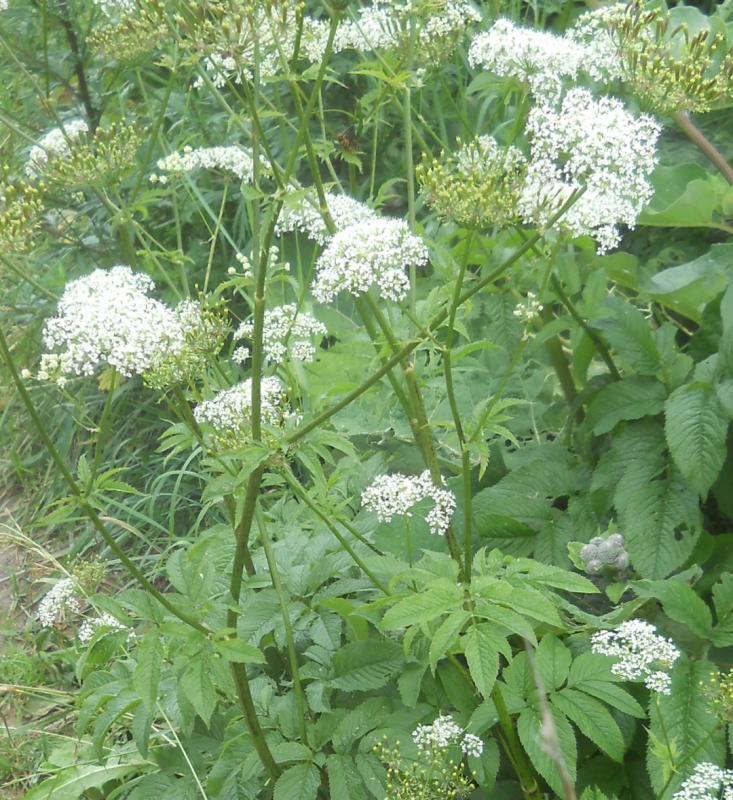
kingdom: Plantae
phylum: Tracheophyta
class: Magnoliopsida
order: Apiales
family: Apiaceae
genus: Chaerophyllum
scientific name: Chaerophyllum aromaticum
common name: Broadleaf chervil
